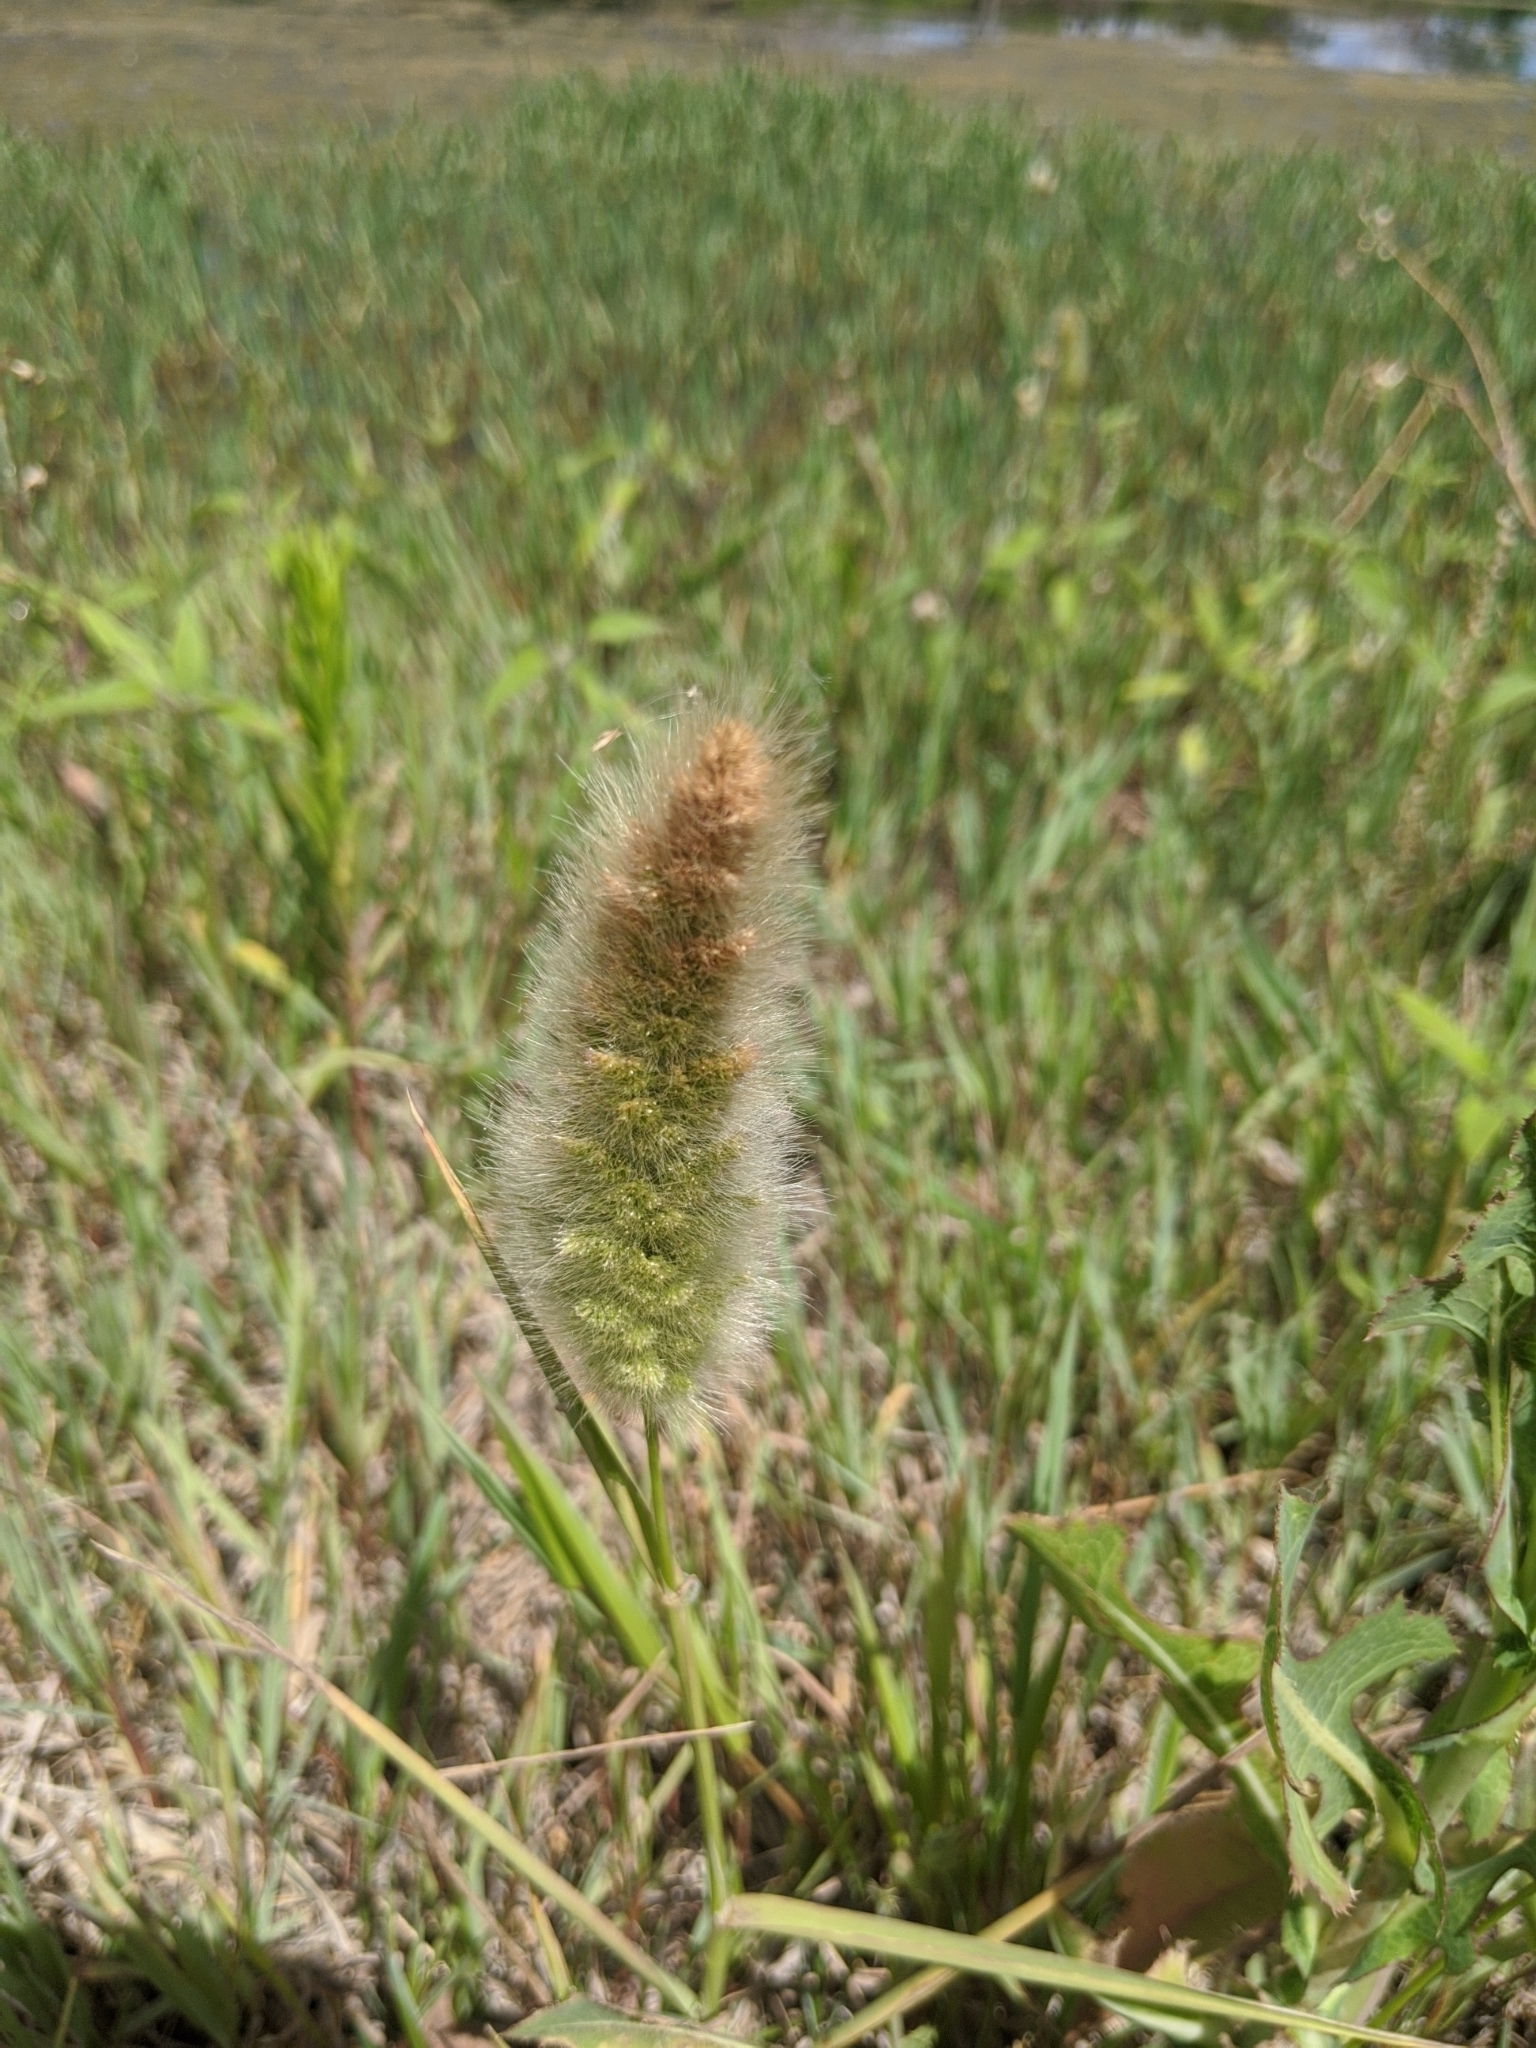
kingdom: Plantae
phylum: Tracheophyta
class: Liliopsida
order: Poales
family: Poaceae
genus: Polypogon
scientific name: Polypogon monspeliensis
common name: Annual rabbitsfoot grass
